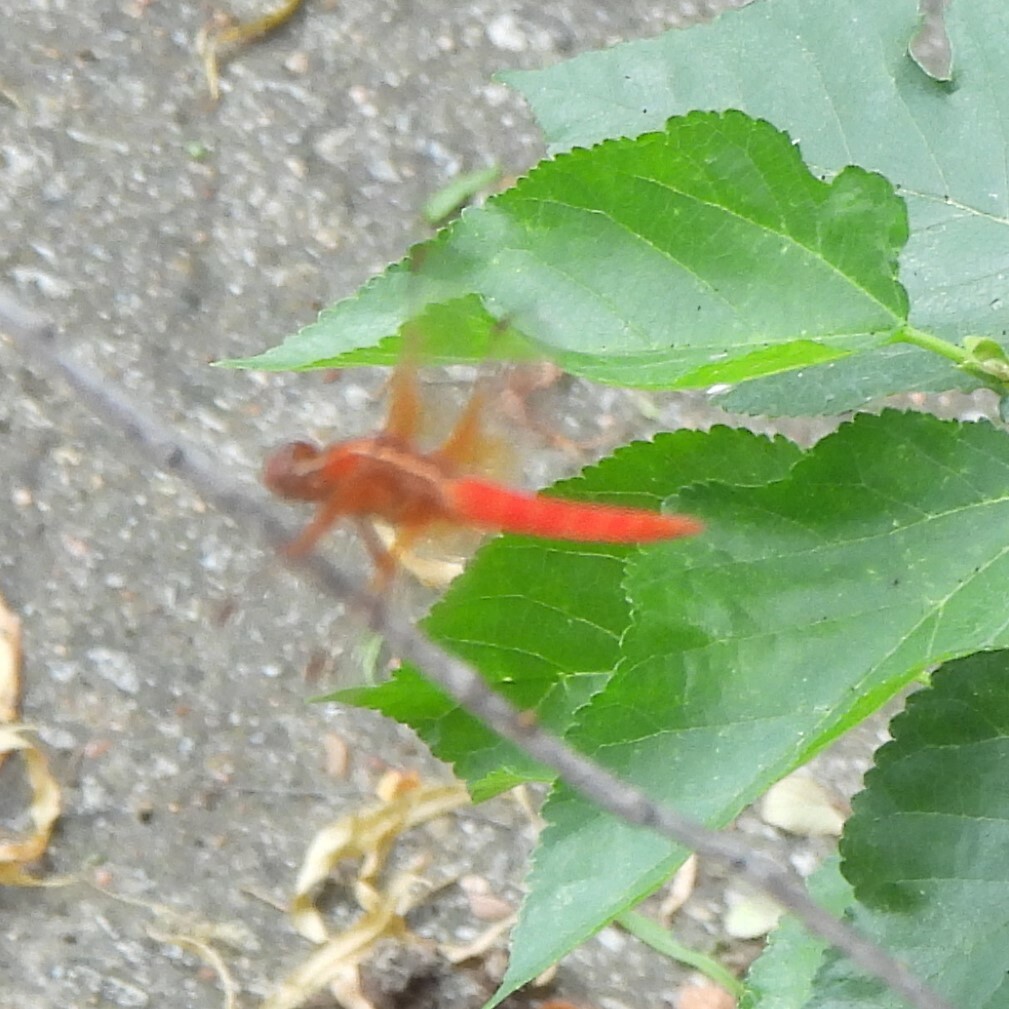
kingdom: Animalia
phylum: Arthropoda
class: Insecta
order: Odonata
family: Libellulidae
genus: Libellula
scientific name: Libellula croceipennis
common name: Neon skimmer
